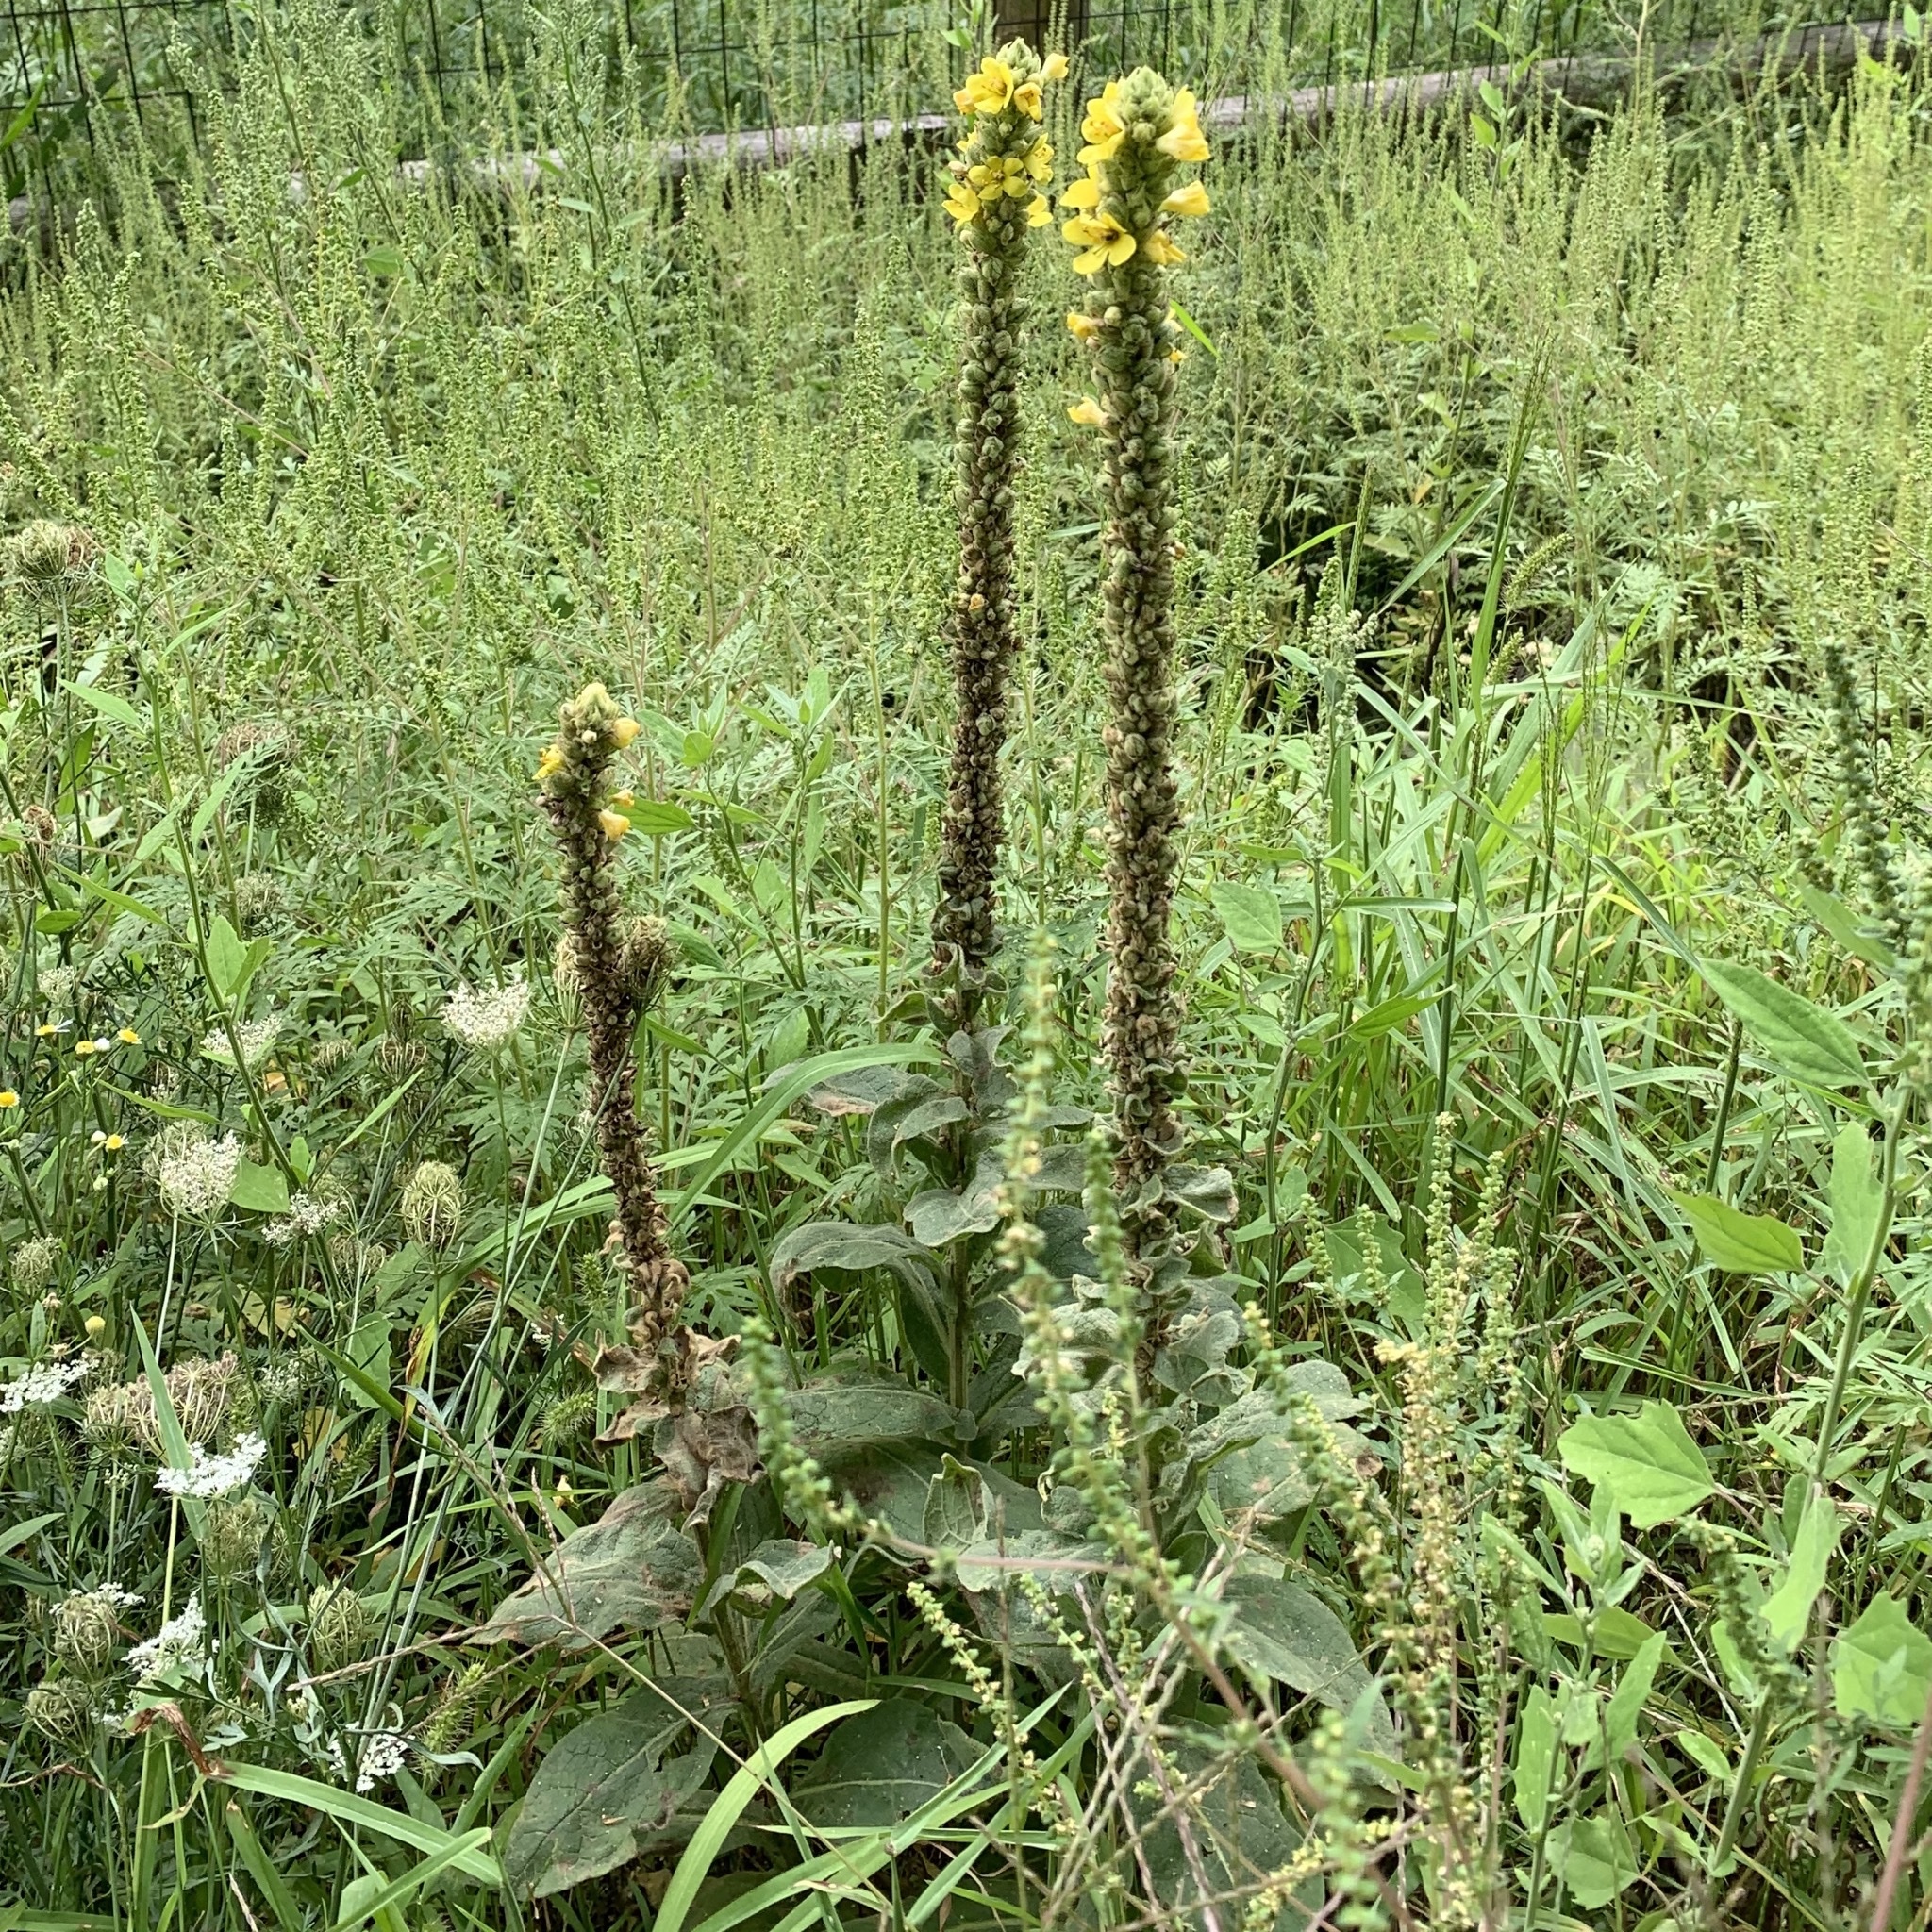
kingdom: Plantae
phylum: Tracheophyta
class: Magnoliopsida
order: Lamiales
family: Scrophulariaceae
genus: Verbascum
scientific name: Verbascum thapsus
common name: Common mullein
